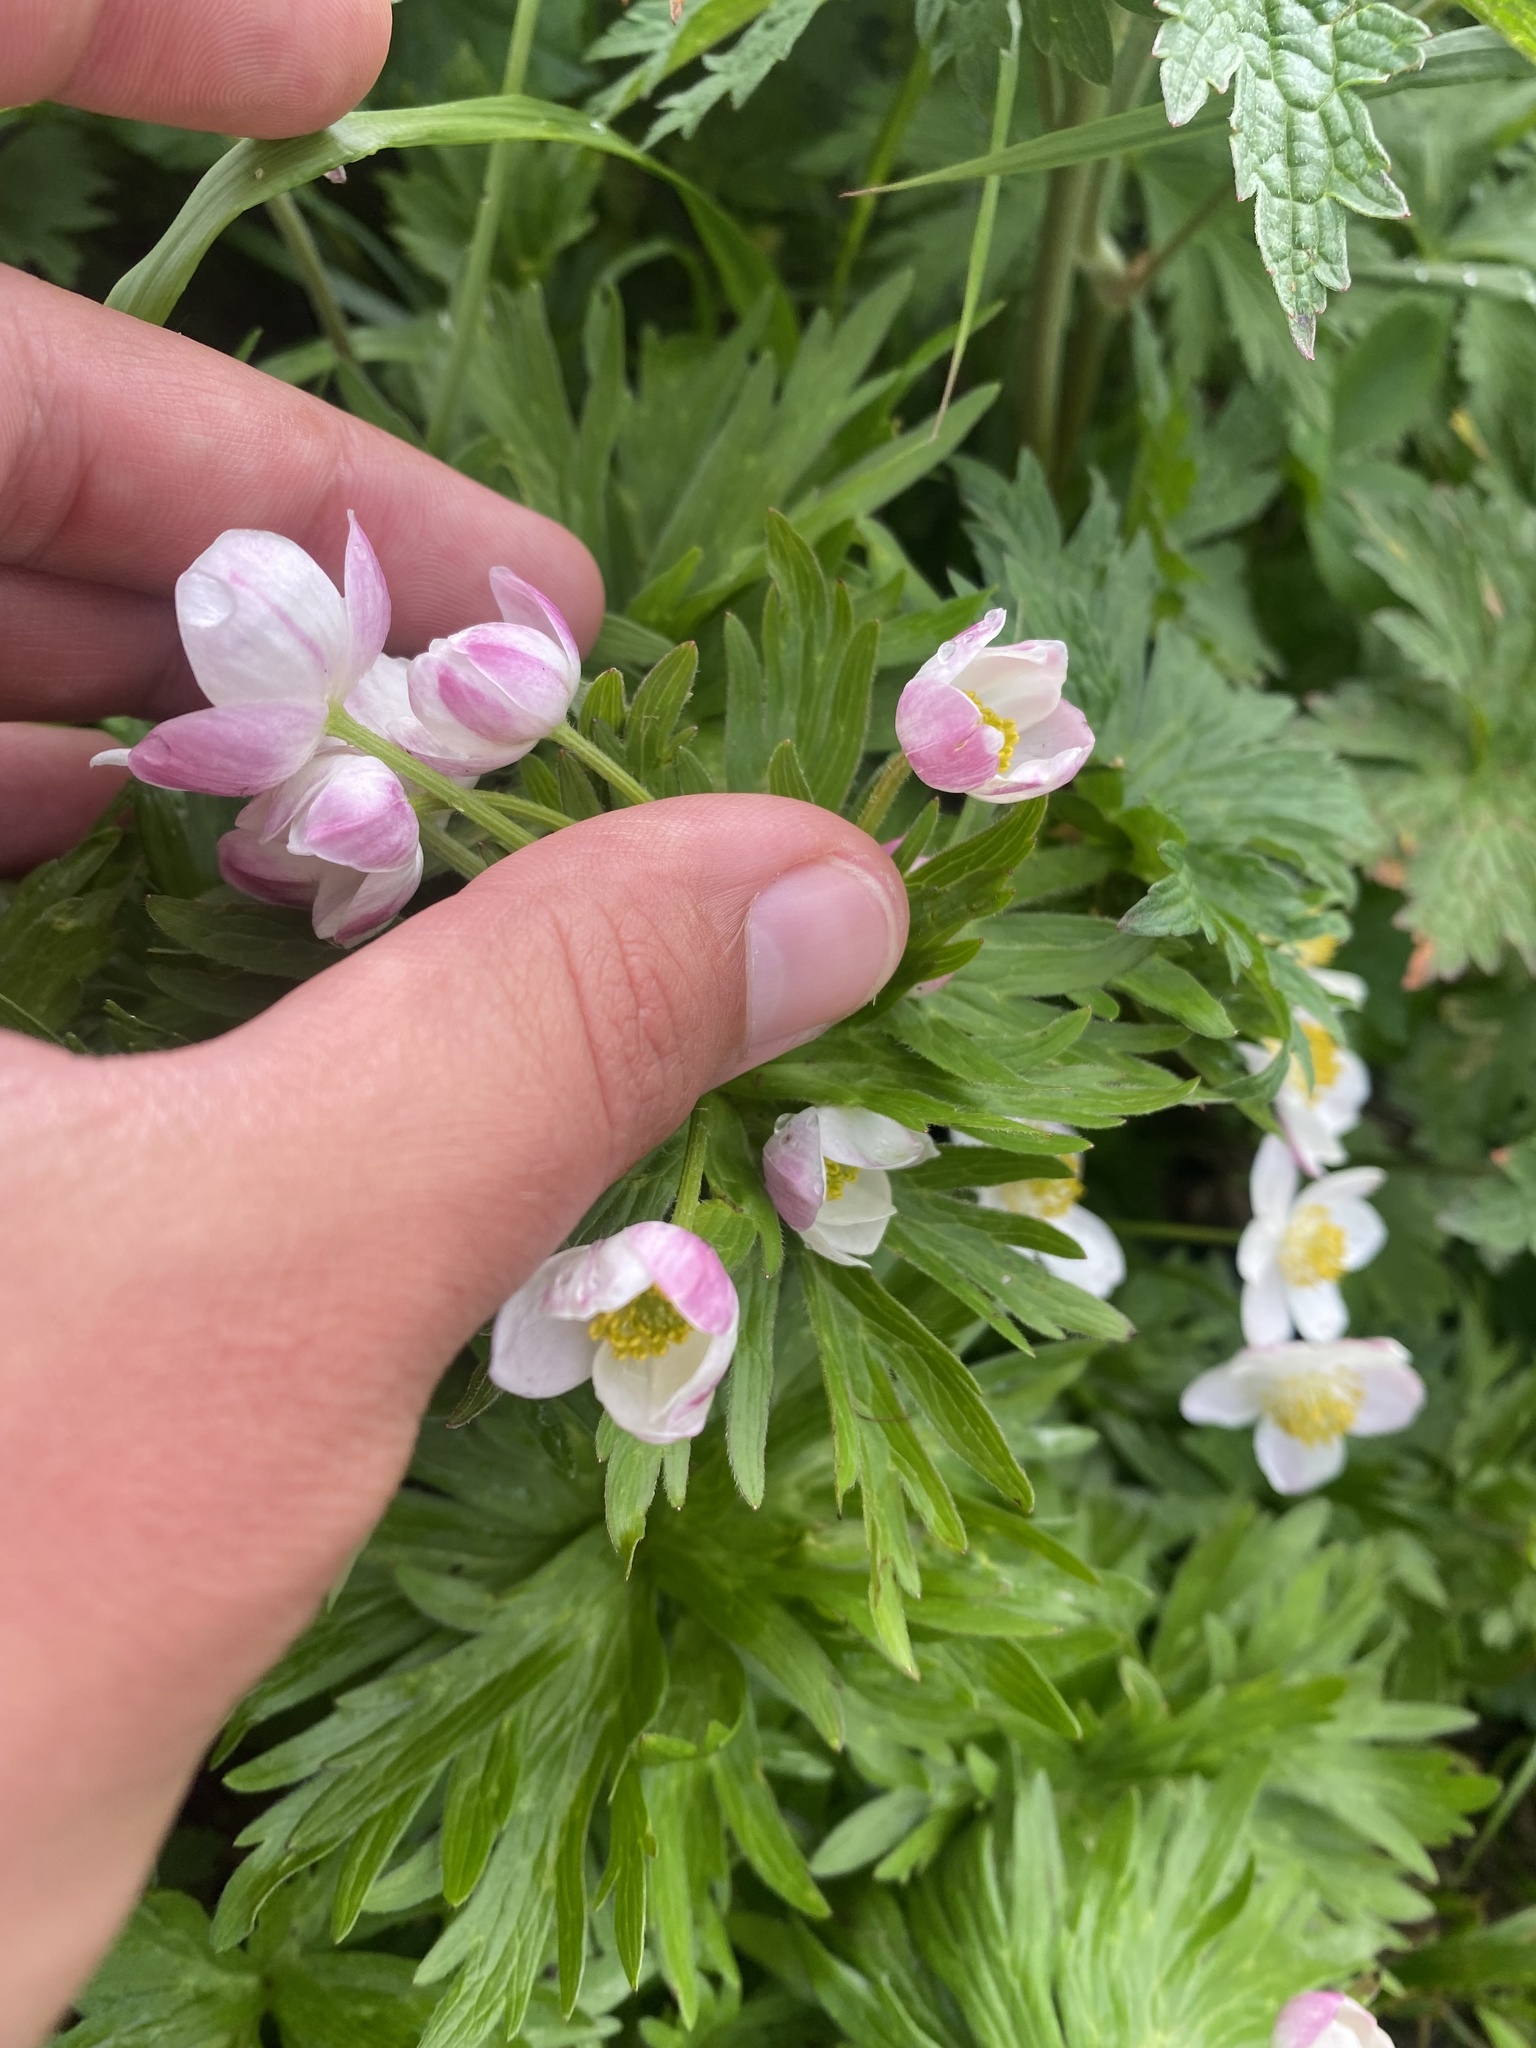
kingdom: Plantae
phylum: Tracheophyta
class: Magnoliopsida
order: Ranunculales
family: Ranunculaceae
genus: Anemonastrum
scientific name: Anemonastrum narcissiflorum
